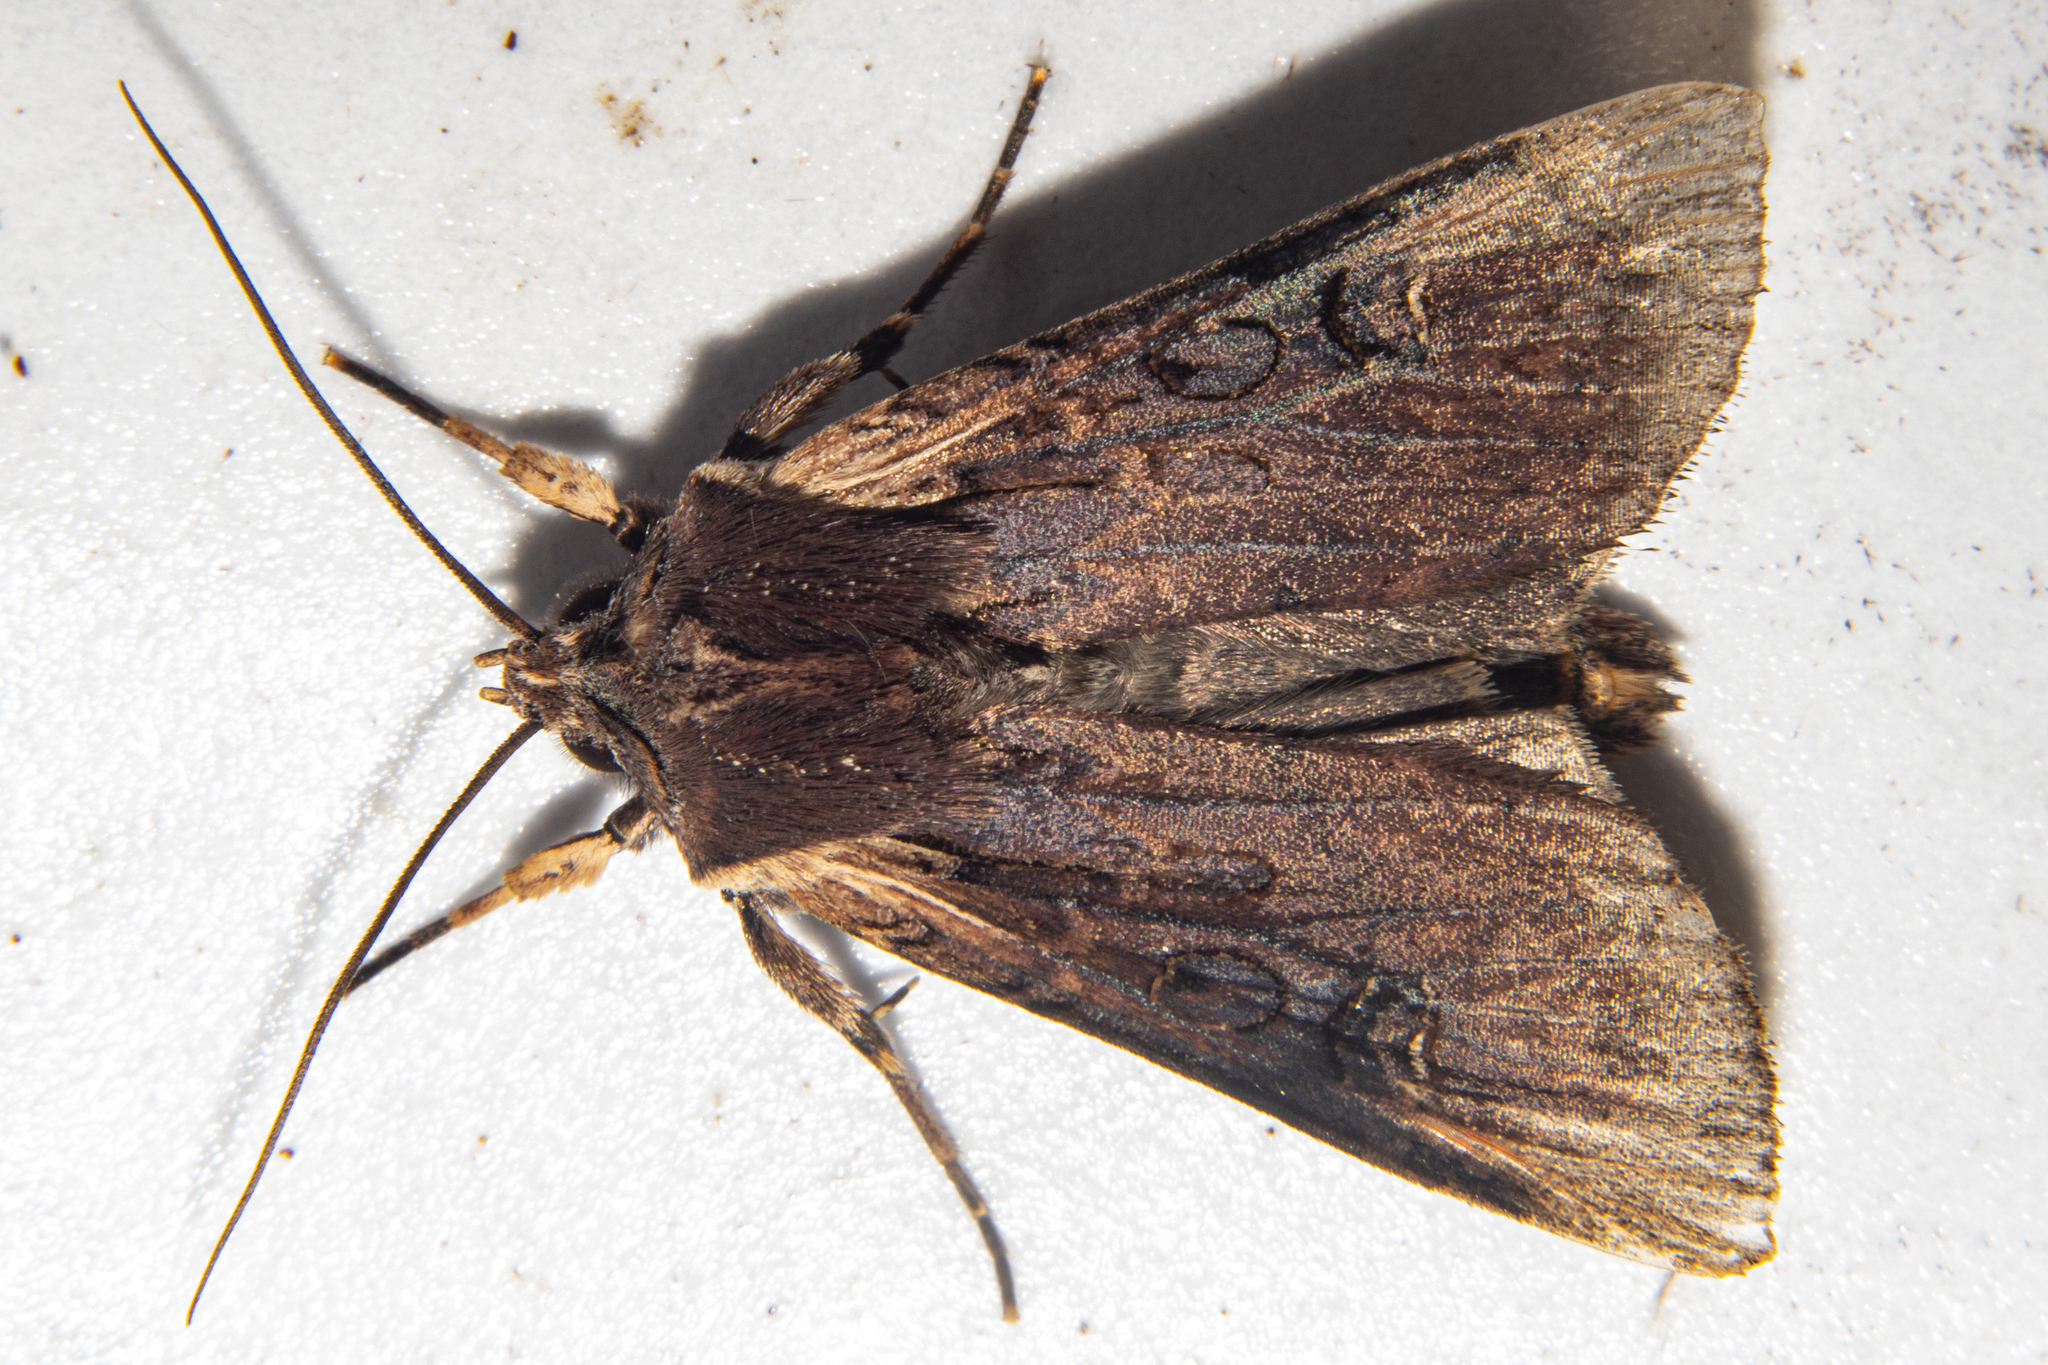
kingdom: Animalia
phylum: Arthropoda
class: Insecta
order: Lepidoptera
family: Noctuidae
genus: Ichneutica
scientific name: Ichneutica omoplaca
